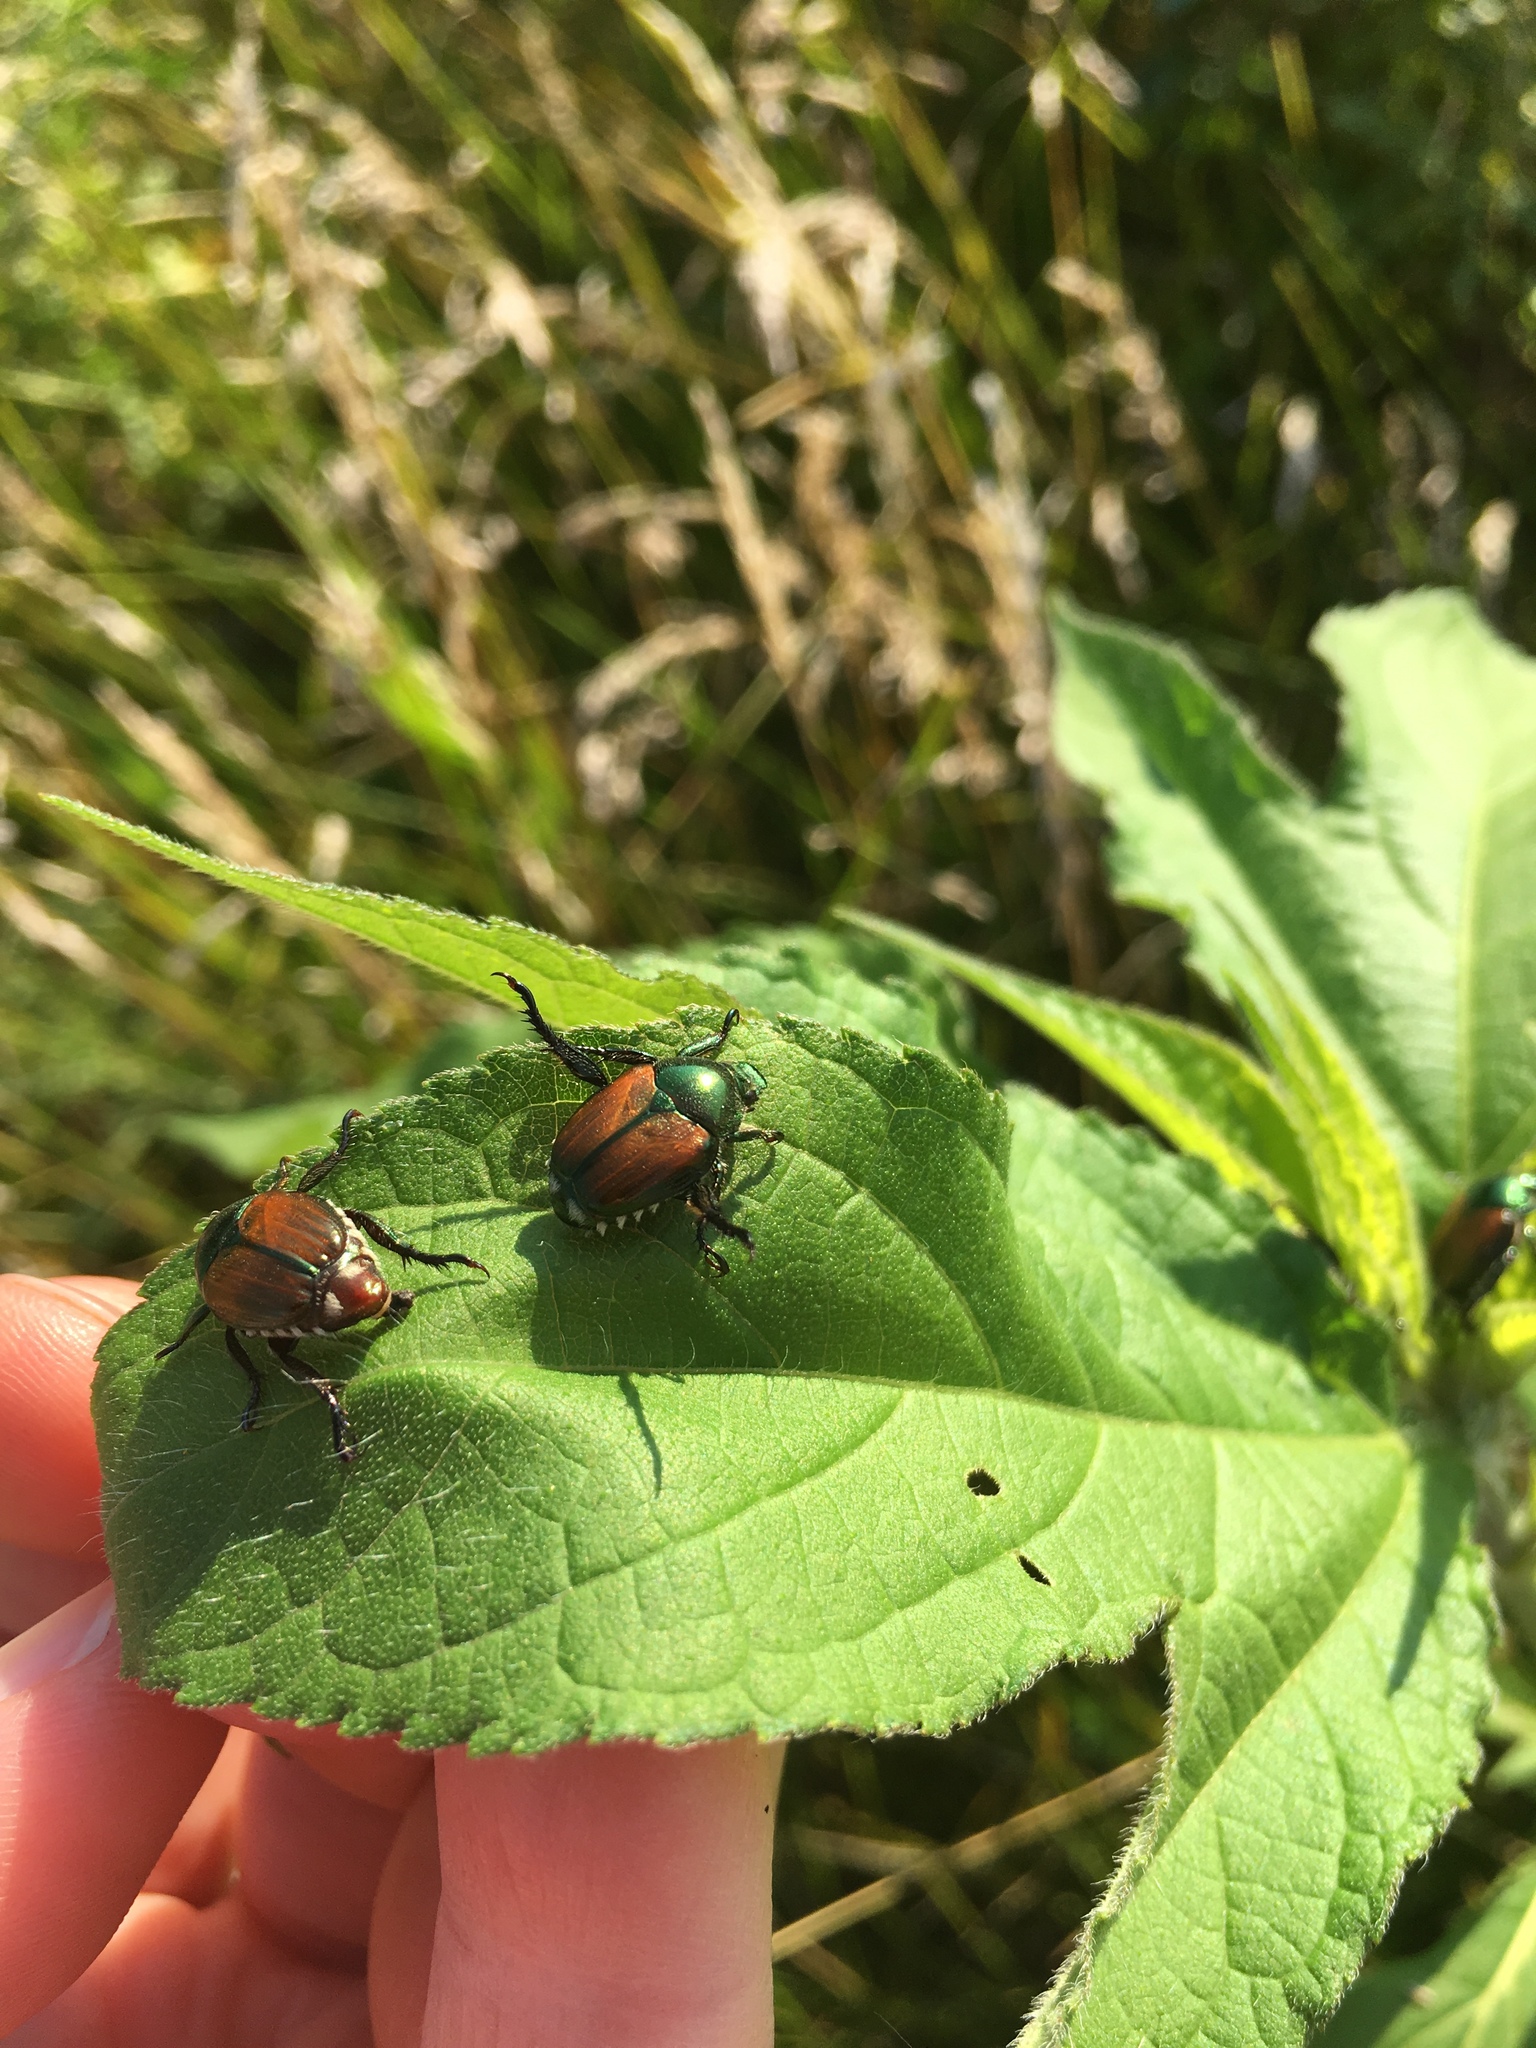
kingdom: Animalia
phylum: Arthropoda
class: Insecta
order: Coleoptera
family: Scarabaeidae
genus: Popillia
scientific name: Popillia japonica
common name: Japanese beetle
